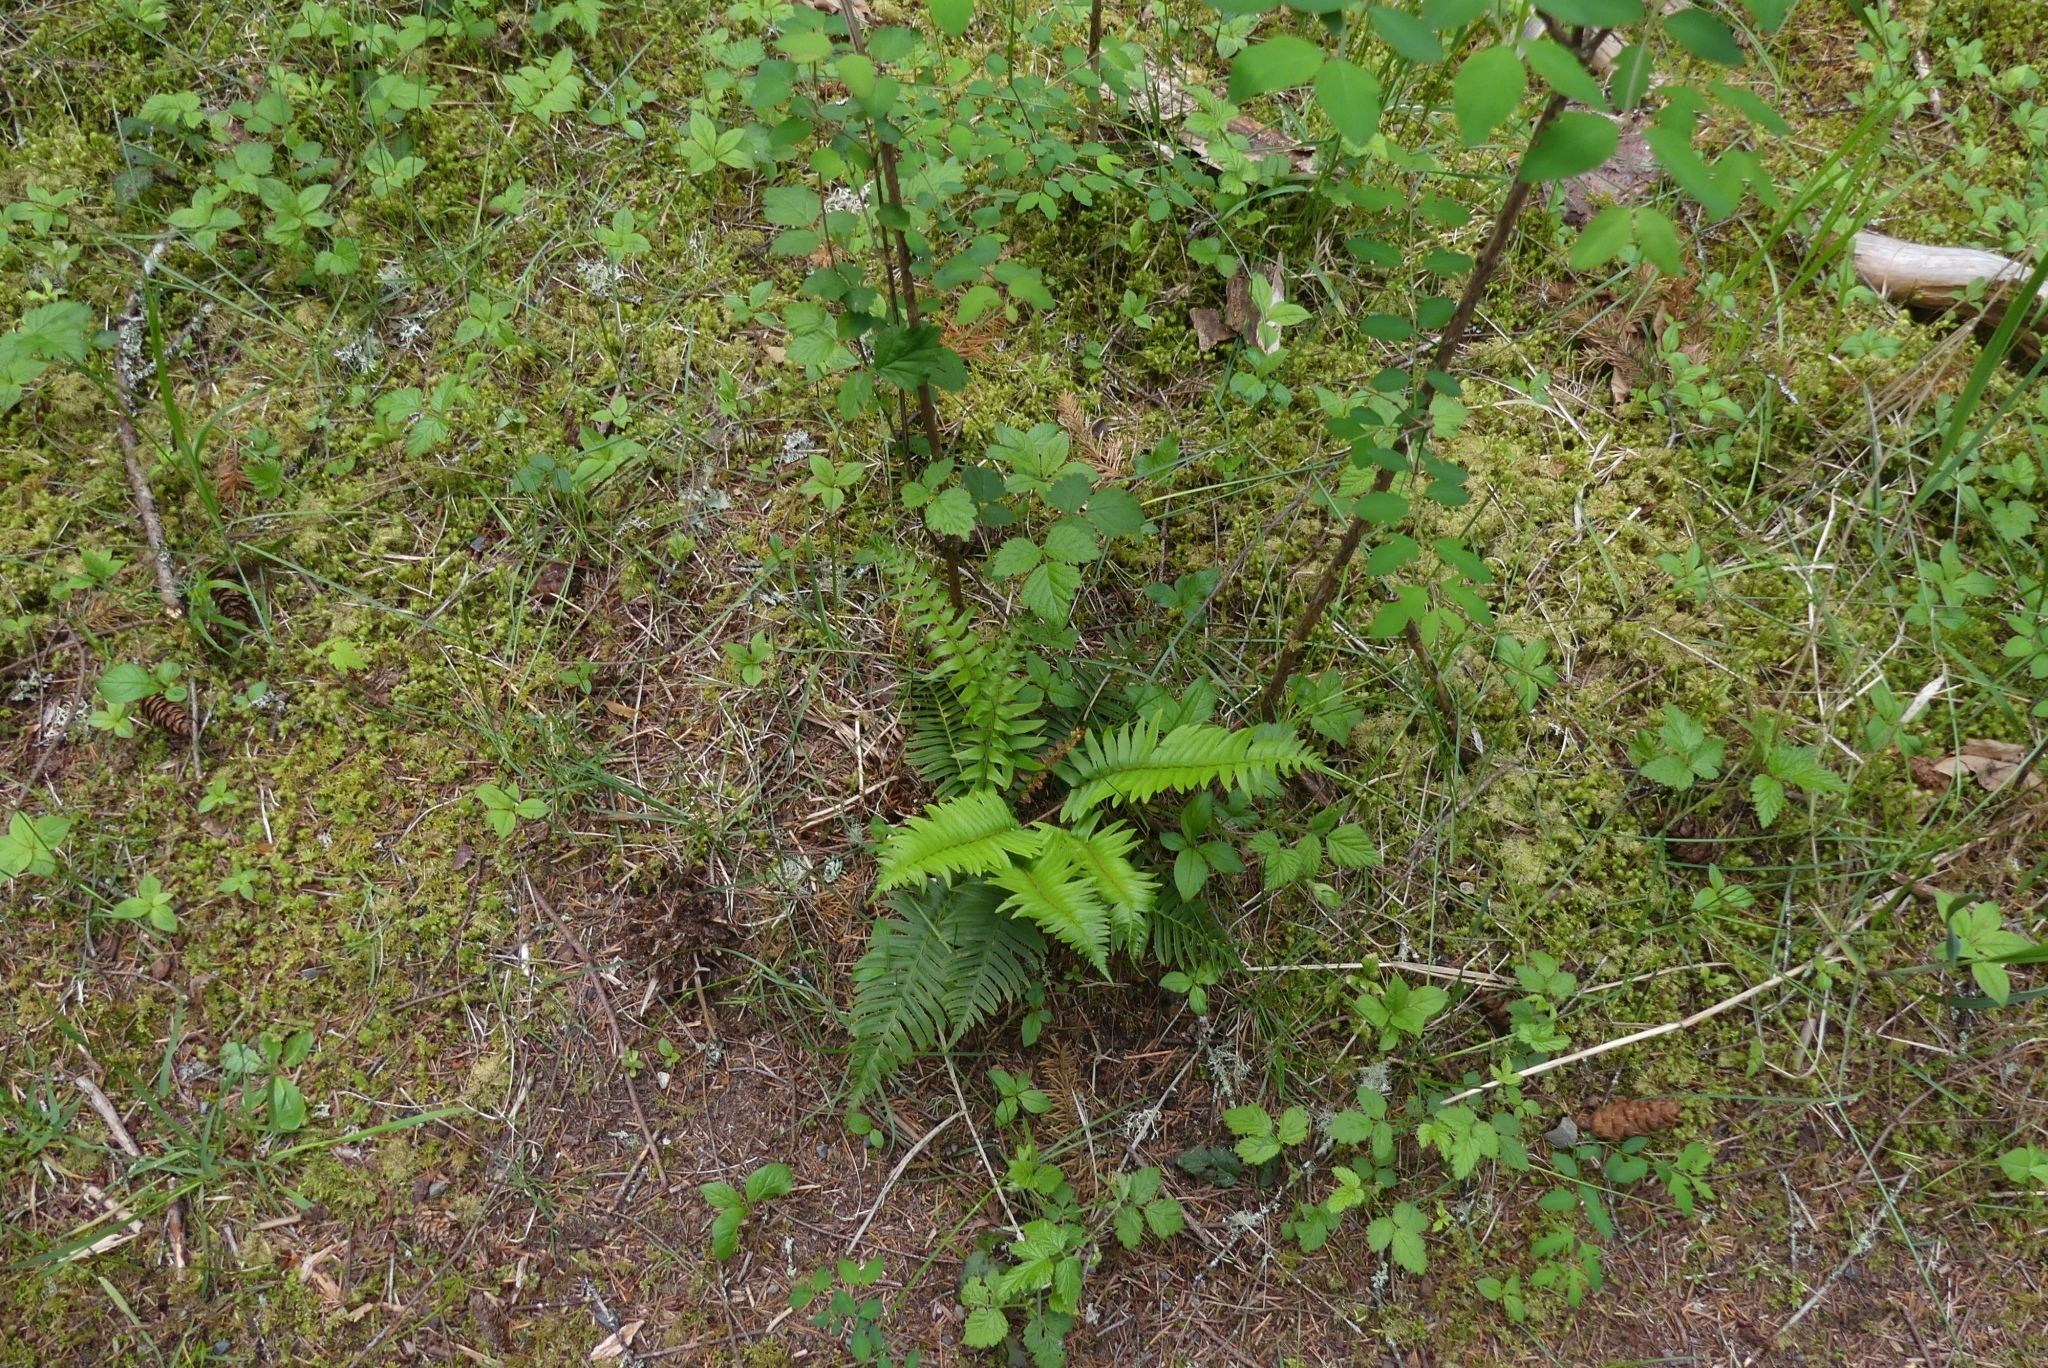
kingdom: Plantae
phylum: Tracheophyta
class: Polypodiopsida
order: Polypodiales
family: Dryopteridaceae
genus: Polystichum
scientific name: Polystichum munitum
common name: Western sword-fern
